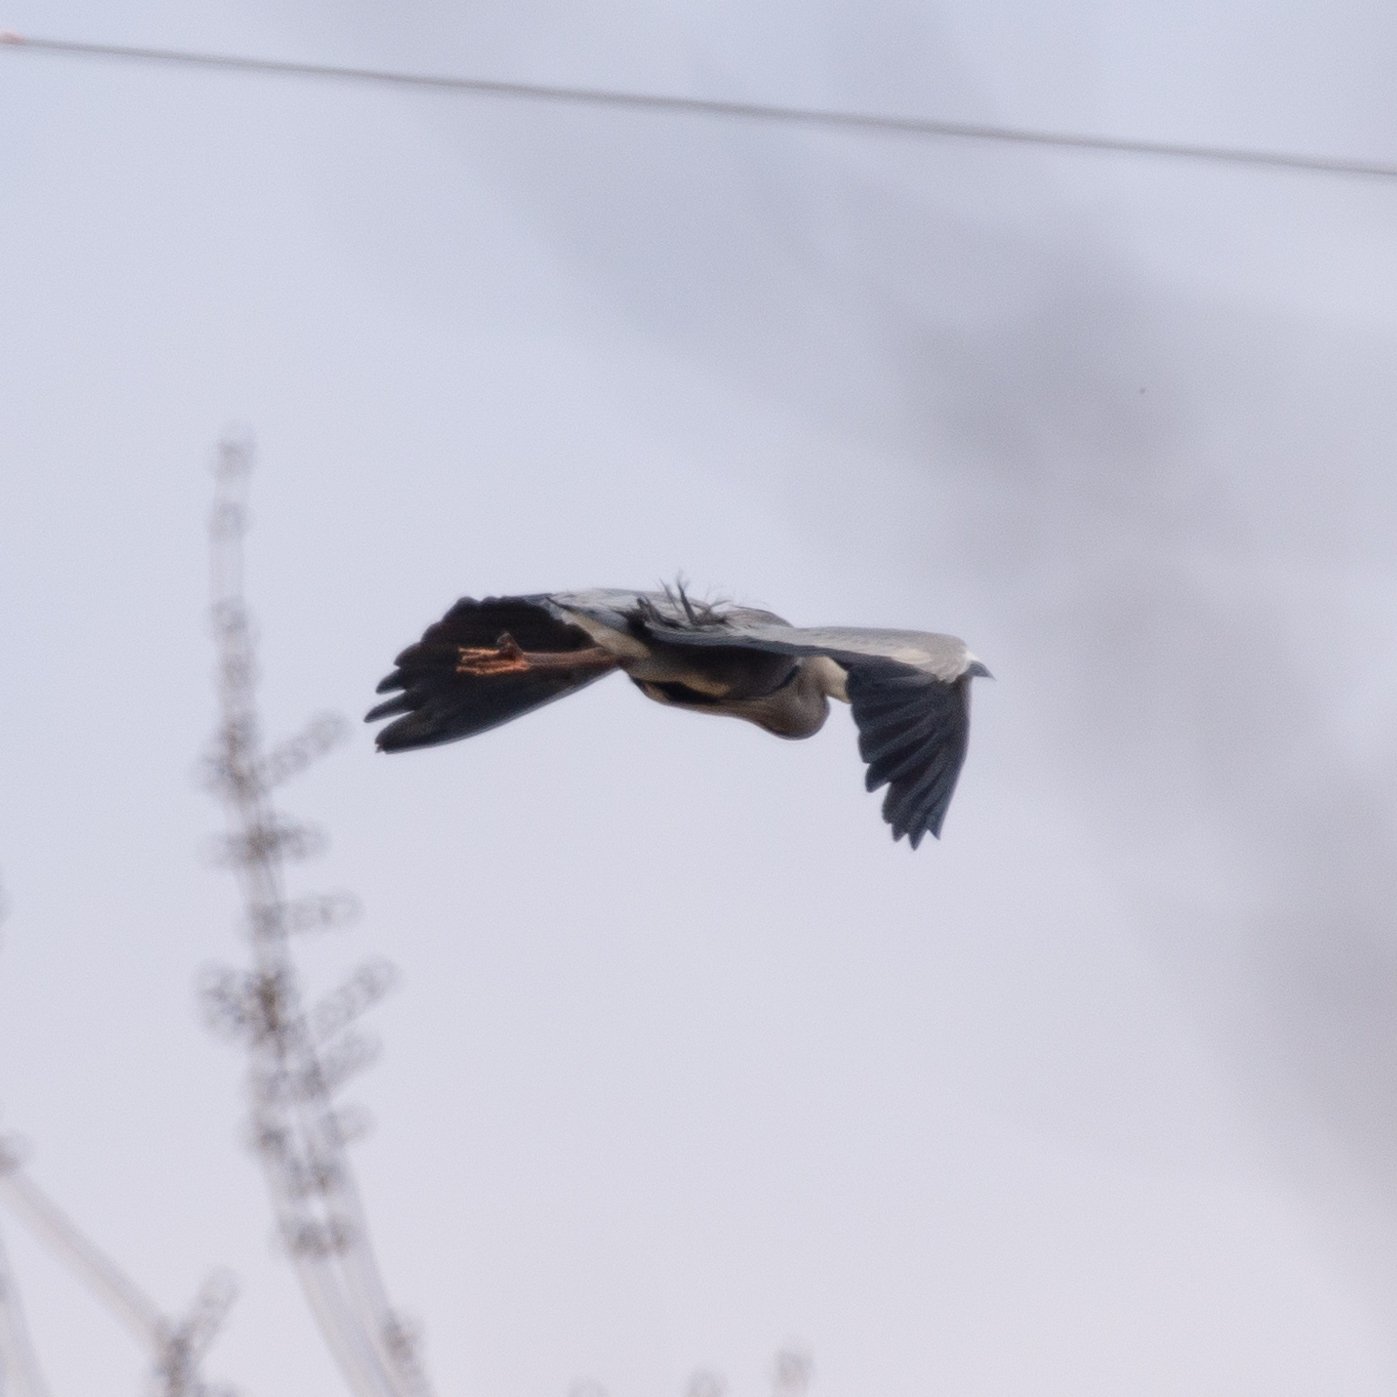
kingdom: Animalia
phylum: Chordata
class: Aves
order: Pelecaniformes
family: Ardeidae
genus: Ardea
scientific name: Ardea cinerea
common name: Grey heron
